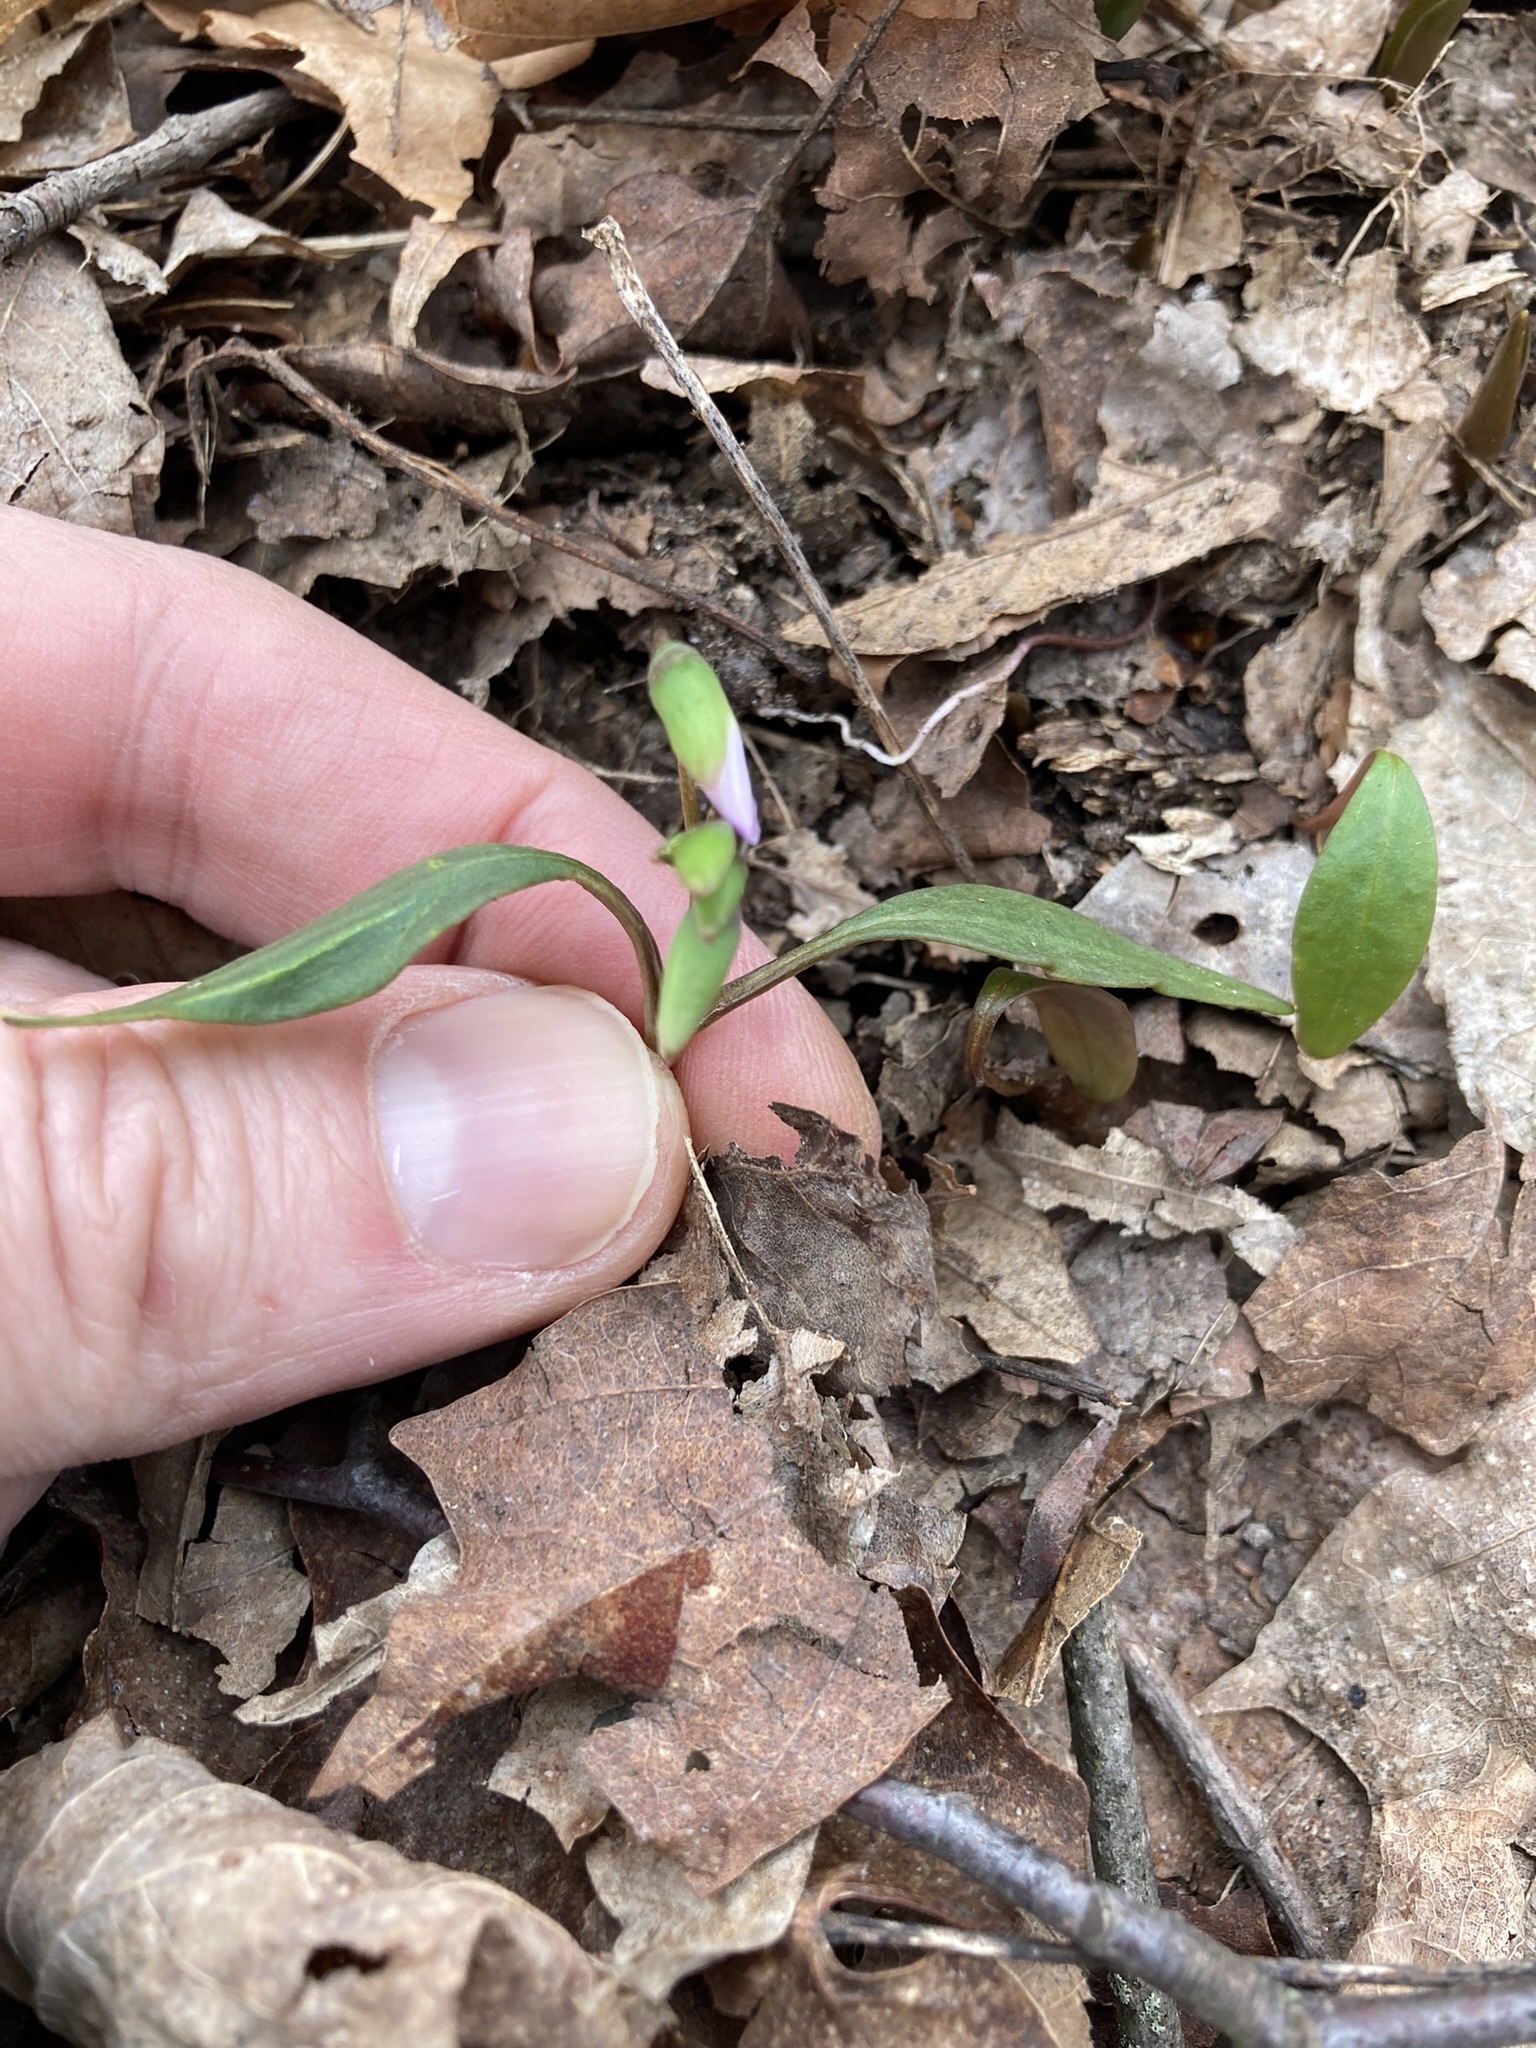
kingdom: Plantae
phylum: Tracheophyta
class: Magnoliopsida
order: Caryophyllales
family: Montiaceae
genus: Claytonia
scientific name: Claytonia caroliniana
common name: Carolina spring beauty
